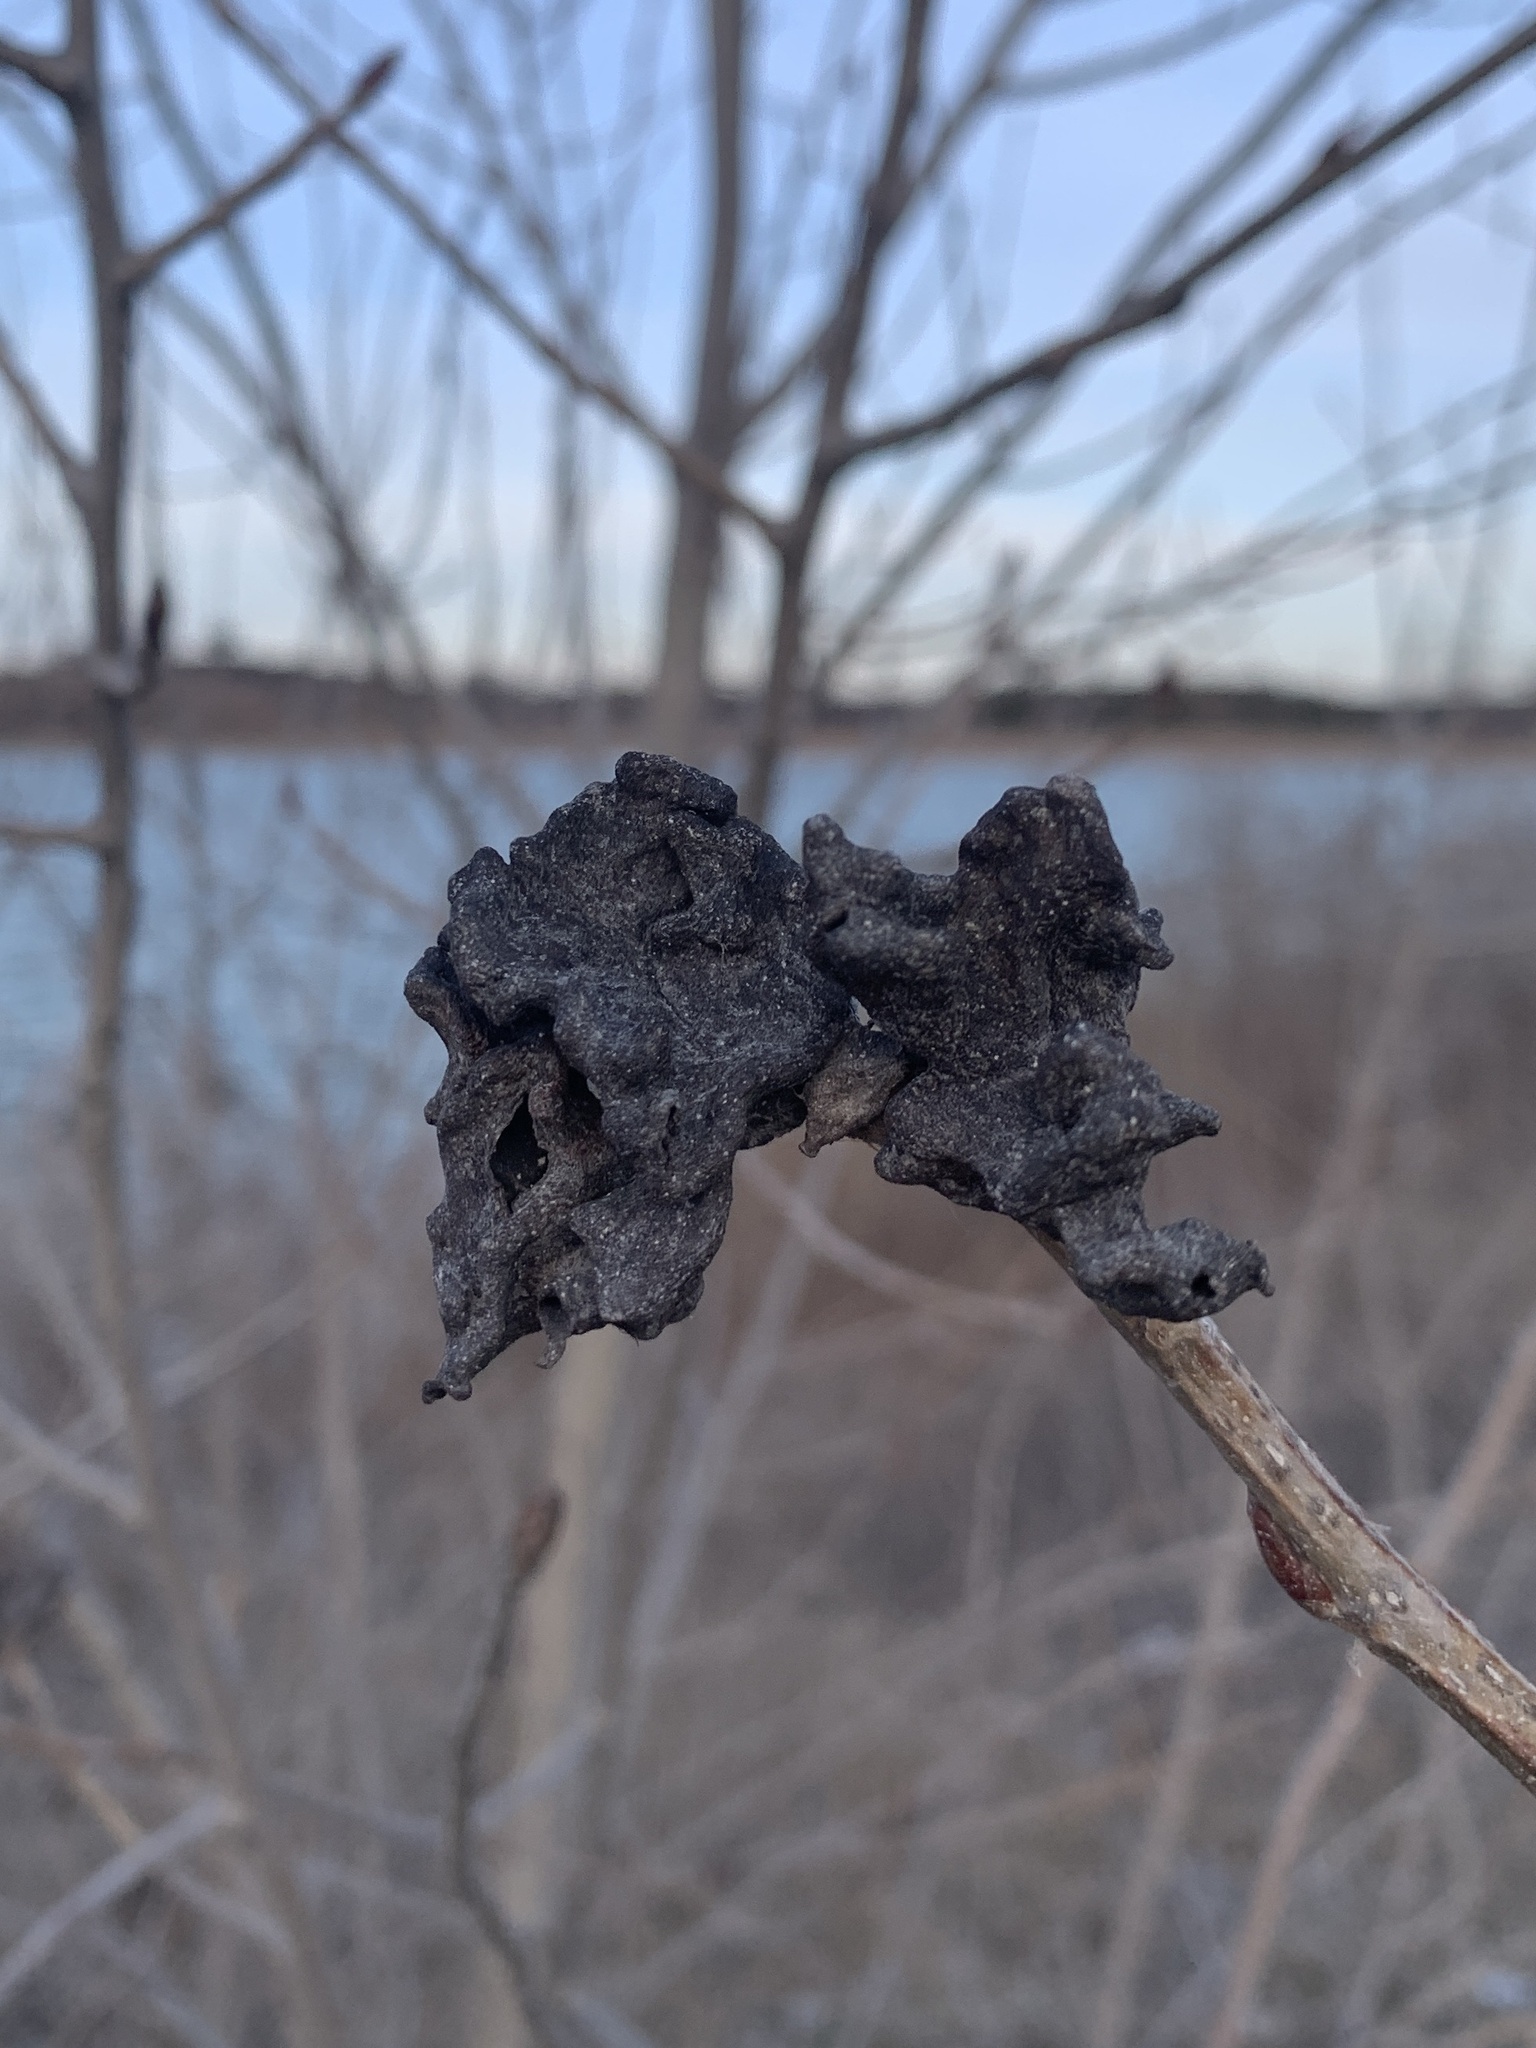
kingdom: Animalia
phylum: Arthropoda
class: Insecta
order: Hemiptera
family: Aphididae
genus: Mordwilkoja
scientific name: Mordwilkoja vagabunda
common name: Poplar vagabond aphid
